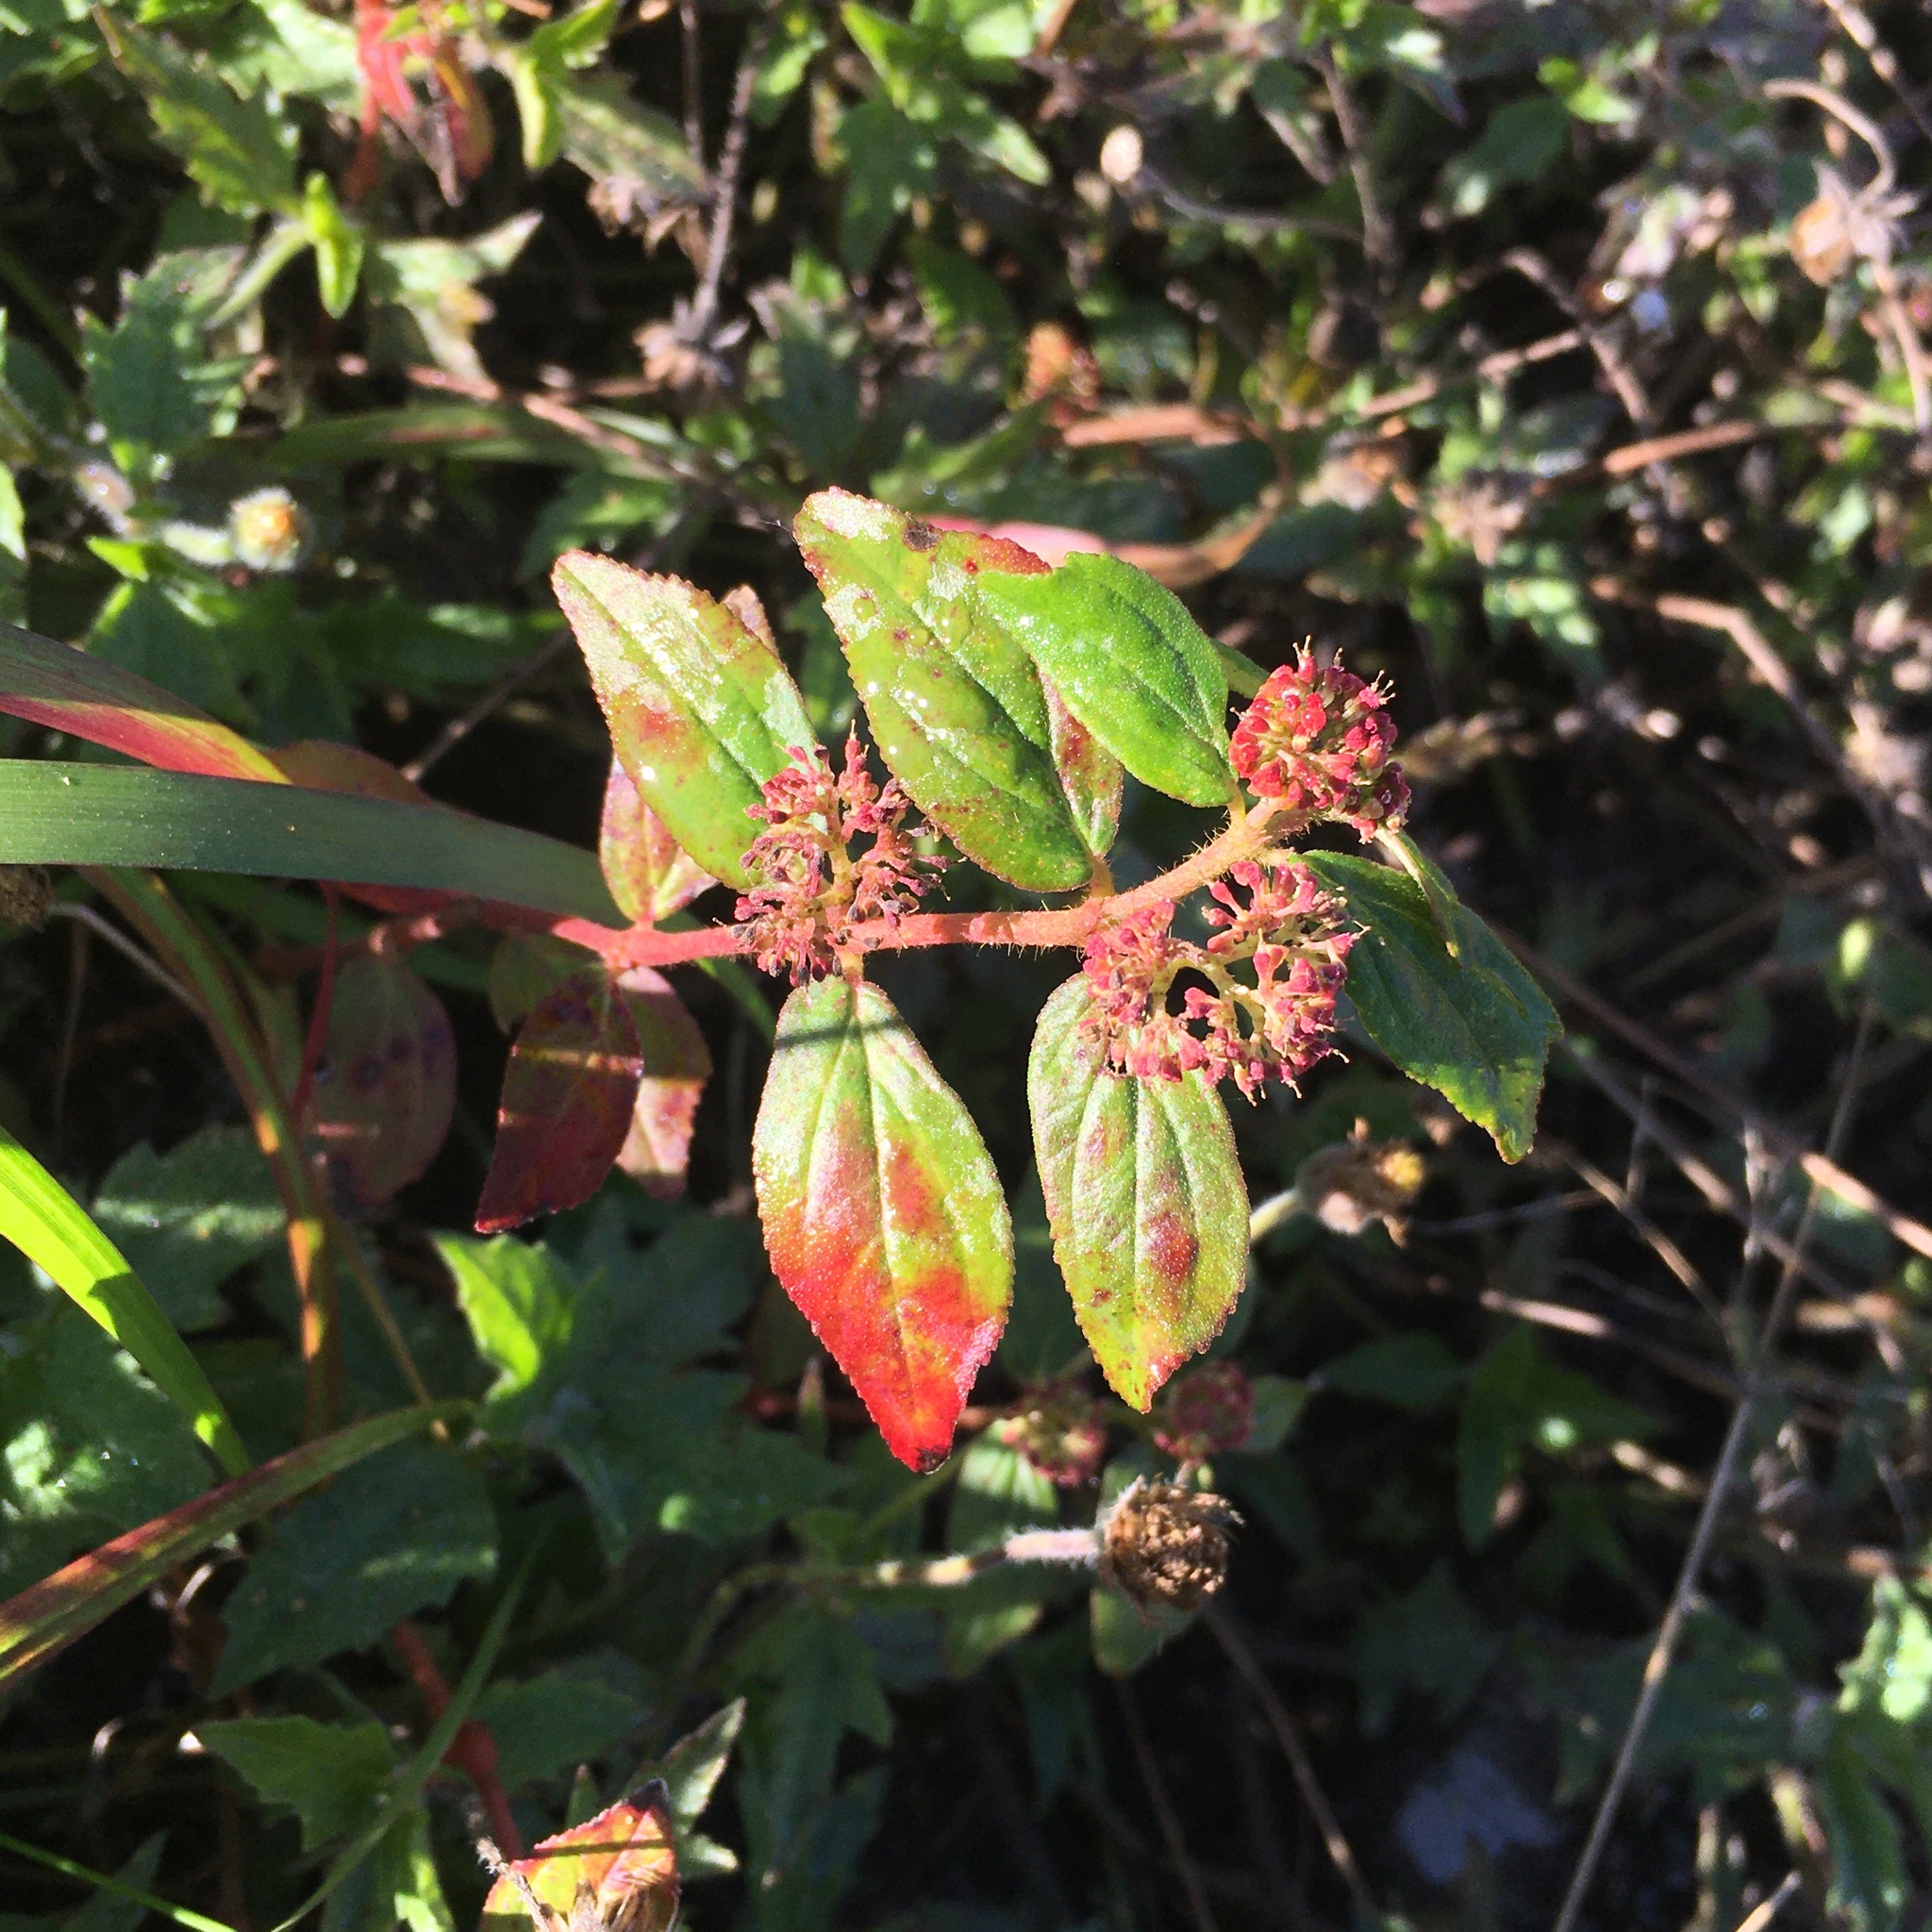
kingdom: Plantae
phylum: Tracheophyta
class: Magnoliopsida
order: Malpighiales
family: Euphorbiaceae
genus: Euphorbia
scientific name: Euphorbia hirta
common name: Pillpod sandmat
